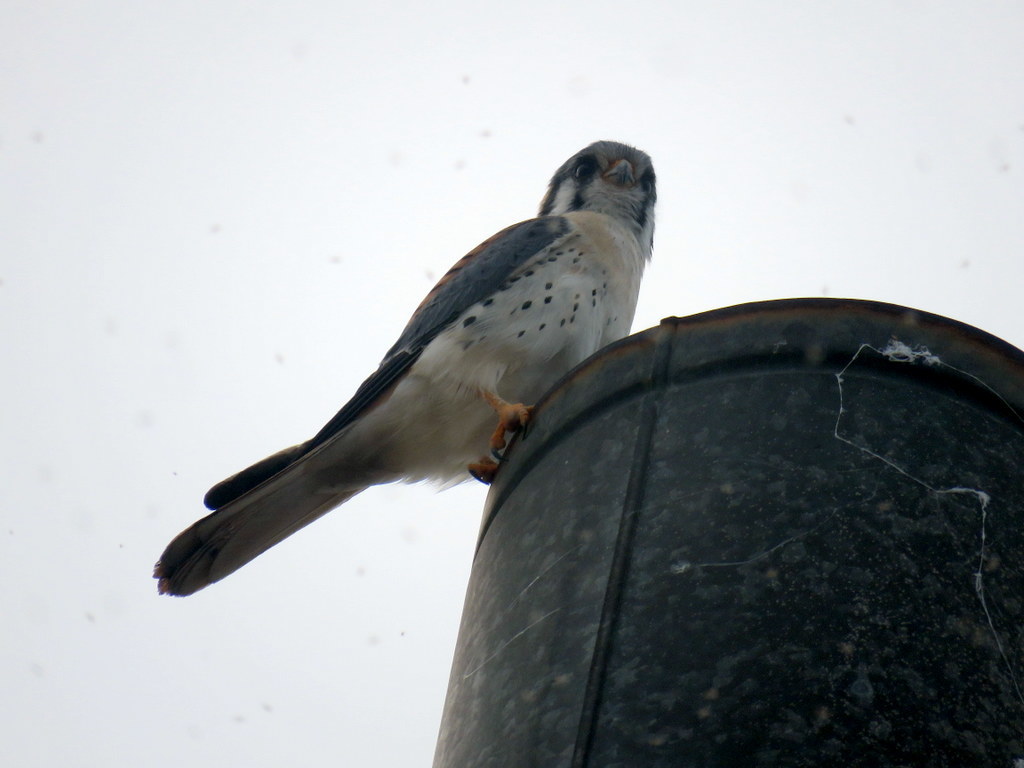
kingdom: Animalia
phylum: Chordata
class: Aves
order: Falconiformes
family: Falconidae
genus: Falco
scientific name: Falco sparverius
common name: American kestrel
